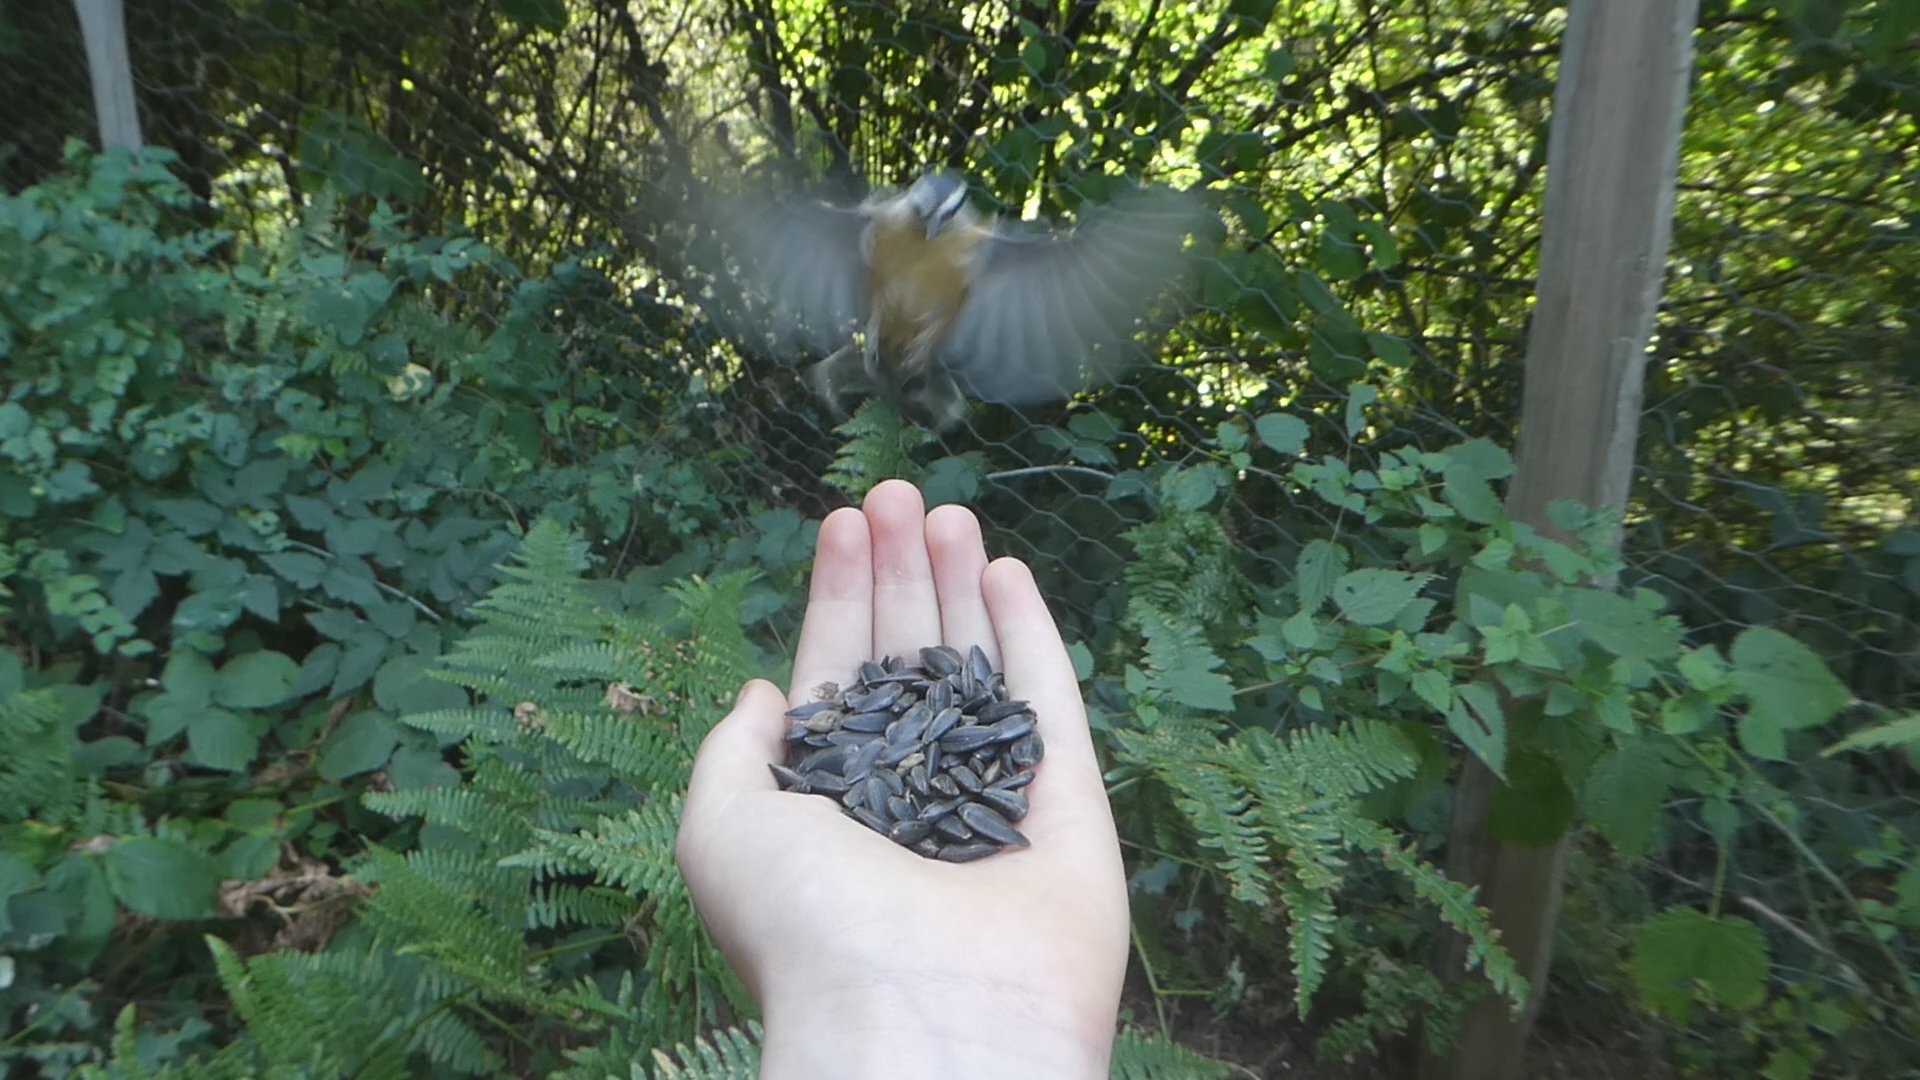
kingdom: Animalia
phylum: Chordata
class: Aves
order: Passeriformes
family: Sittidae
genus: Sitta
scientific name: Sitta canadensis
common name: Red-breasted nuthatch
